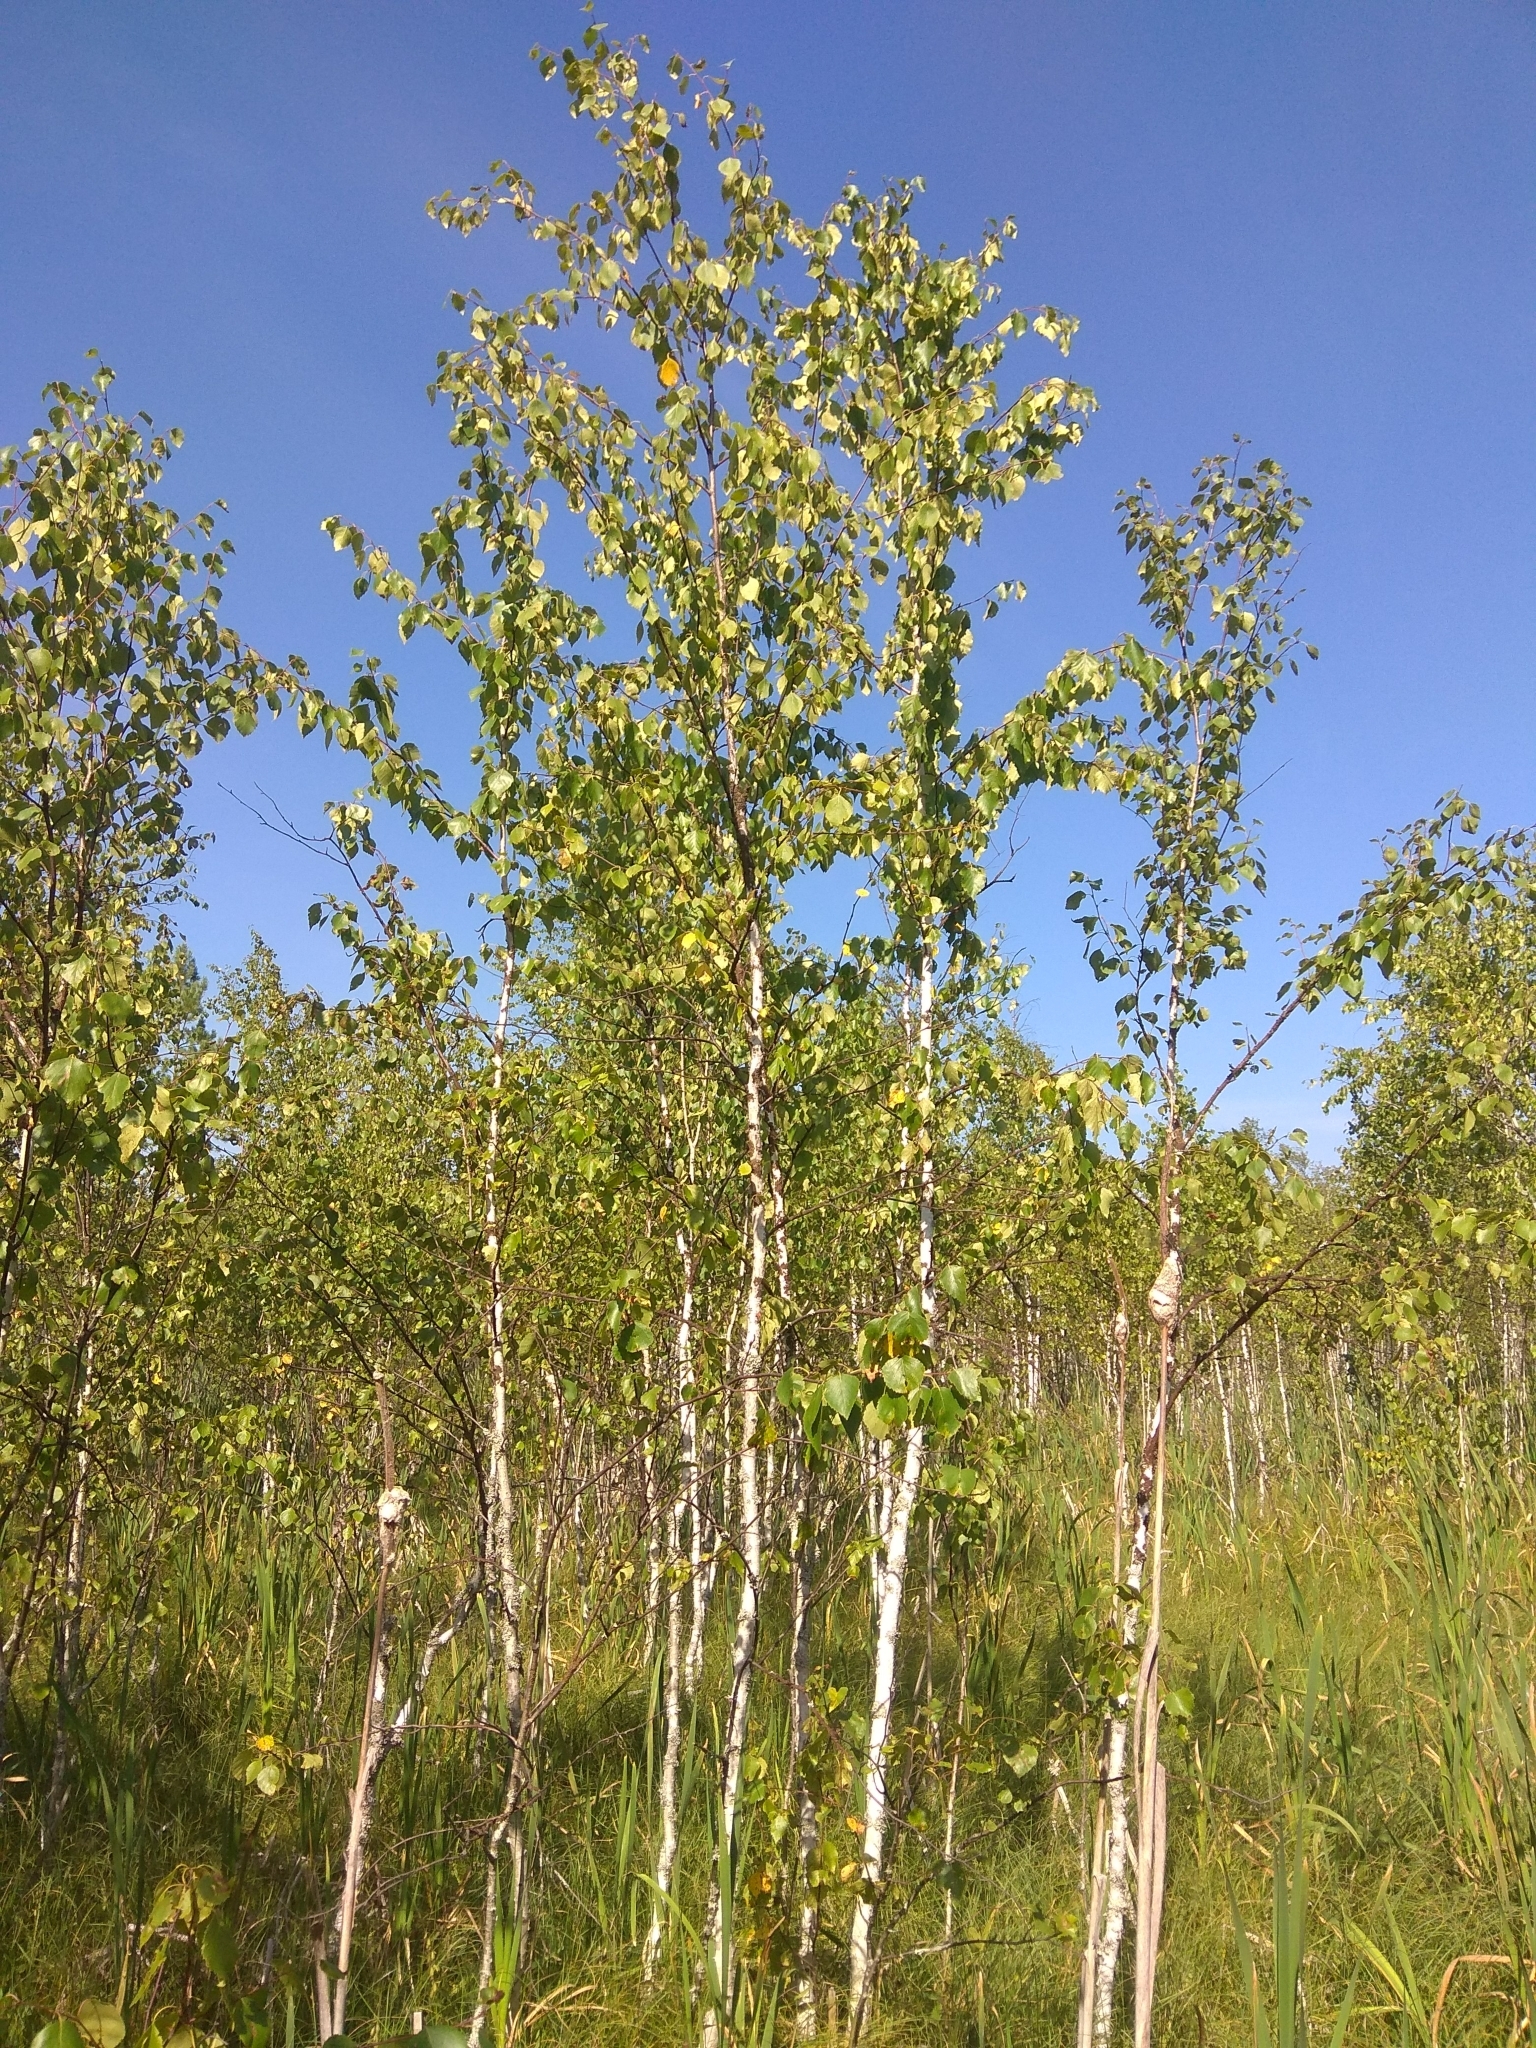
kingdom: Plantae
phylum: Tracheophyta
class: Magnoliopsida
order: Fagales
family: Betulaceae
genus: Betula
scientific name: Betula pubescens
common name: Downy birch
